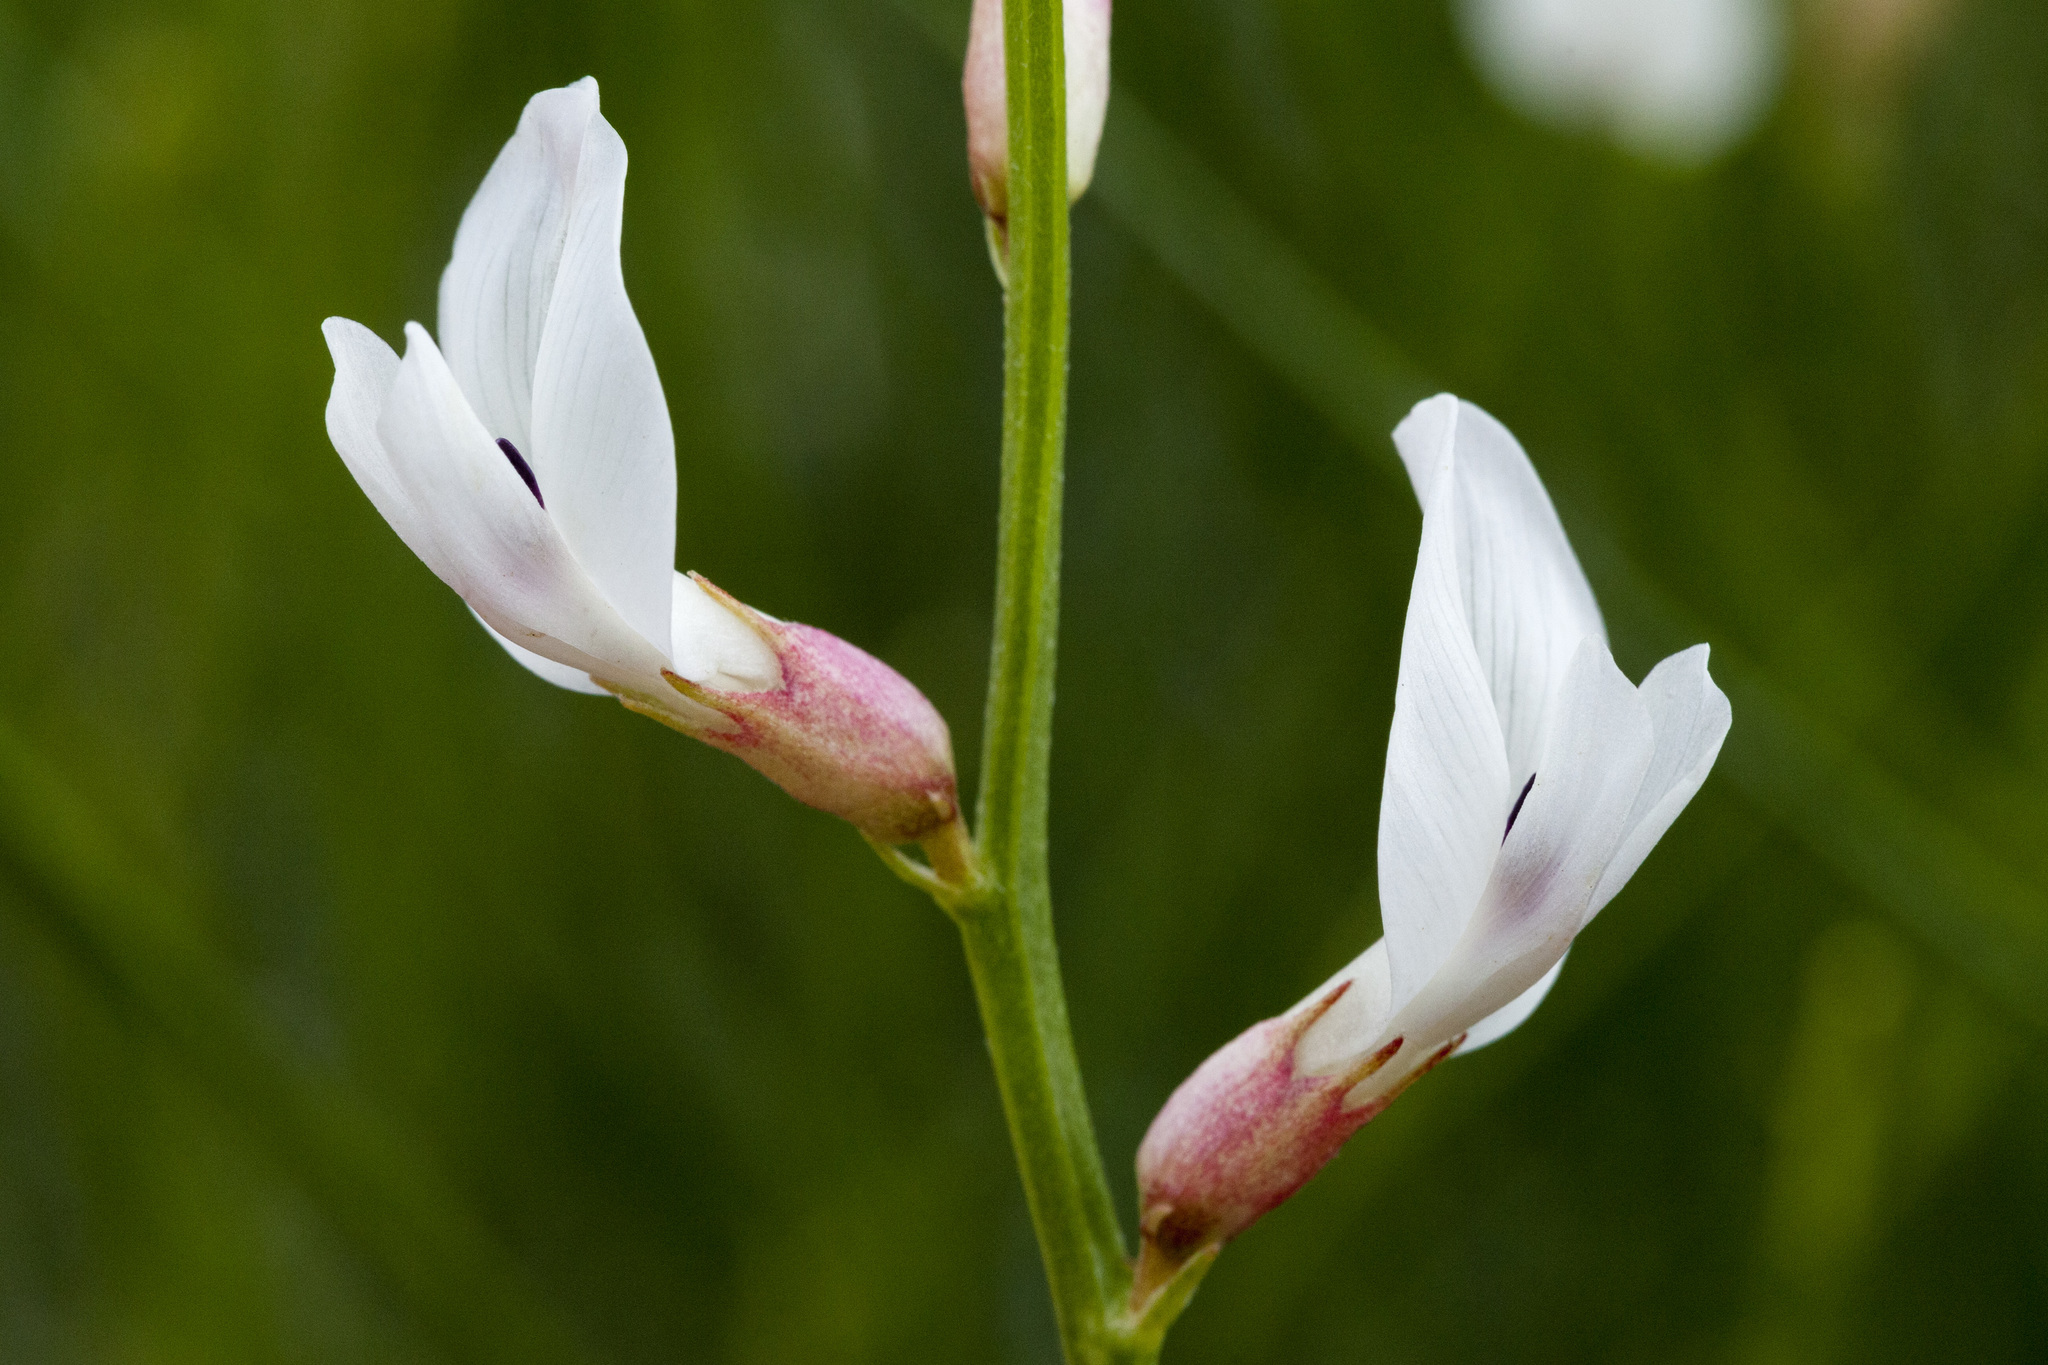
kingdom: Plantae
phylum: Tracheophyta
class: Magnoliopsida
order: Fabales
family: Fabaceae
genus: Astragalus
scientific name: Astragalus linifolius
